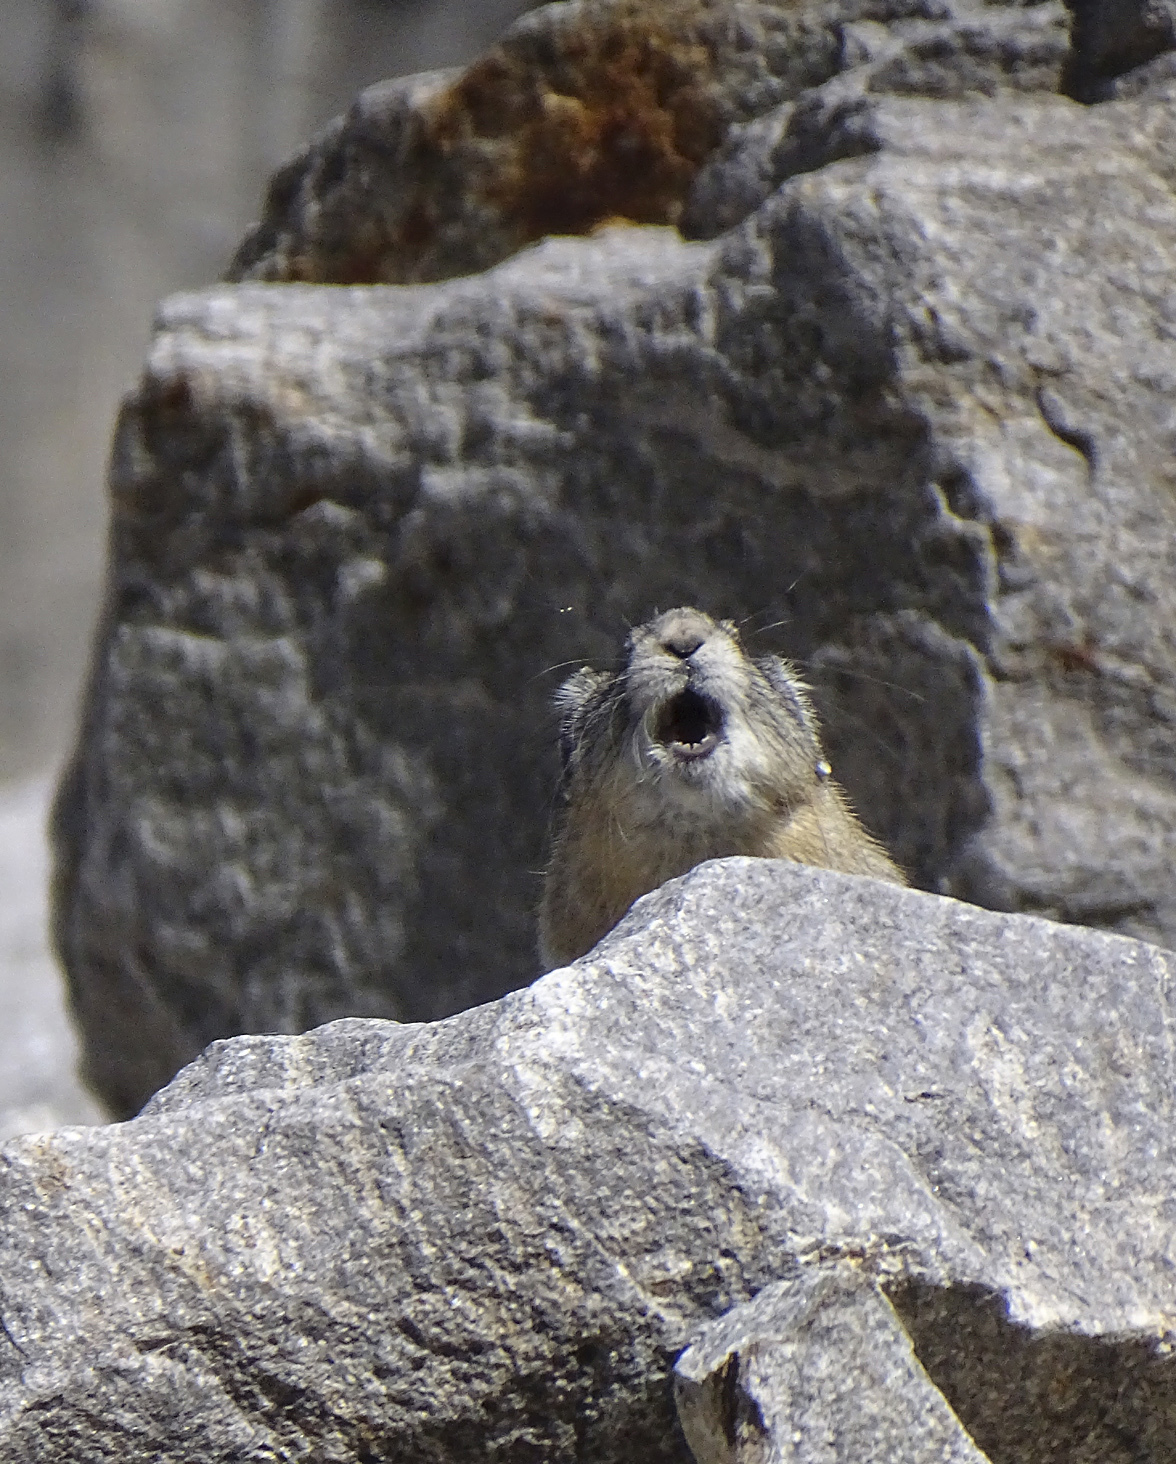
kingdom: Animalia
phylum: Chordata
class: Mammalia
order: Lagomorpha
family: Ochotonidae
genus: Ochotona
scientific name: Ochotona princeps
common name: American pika
